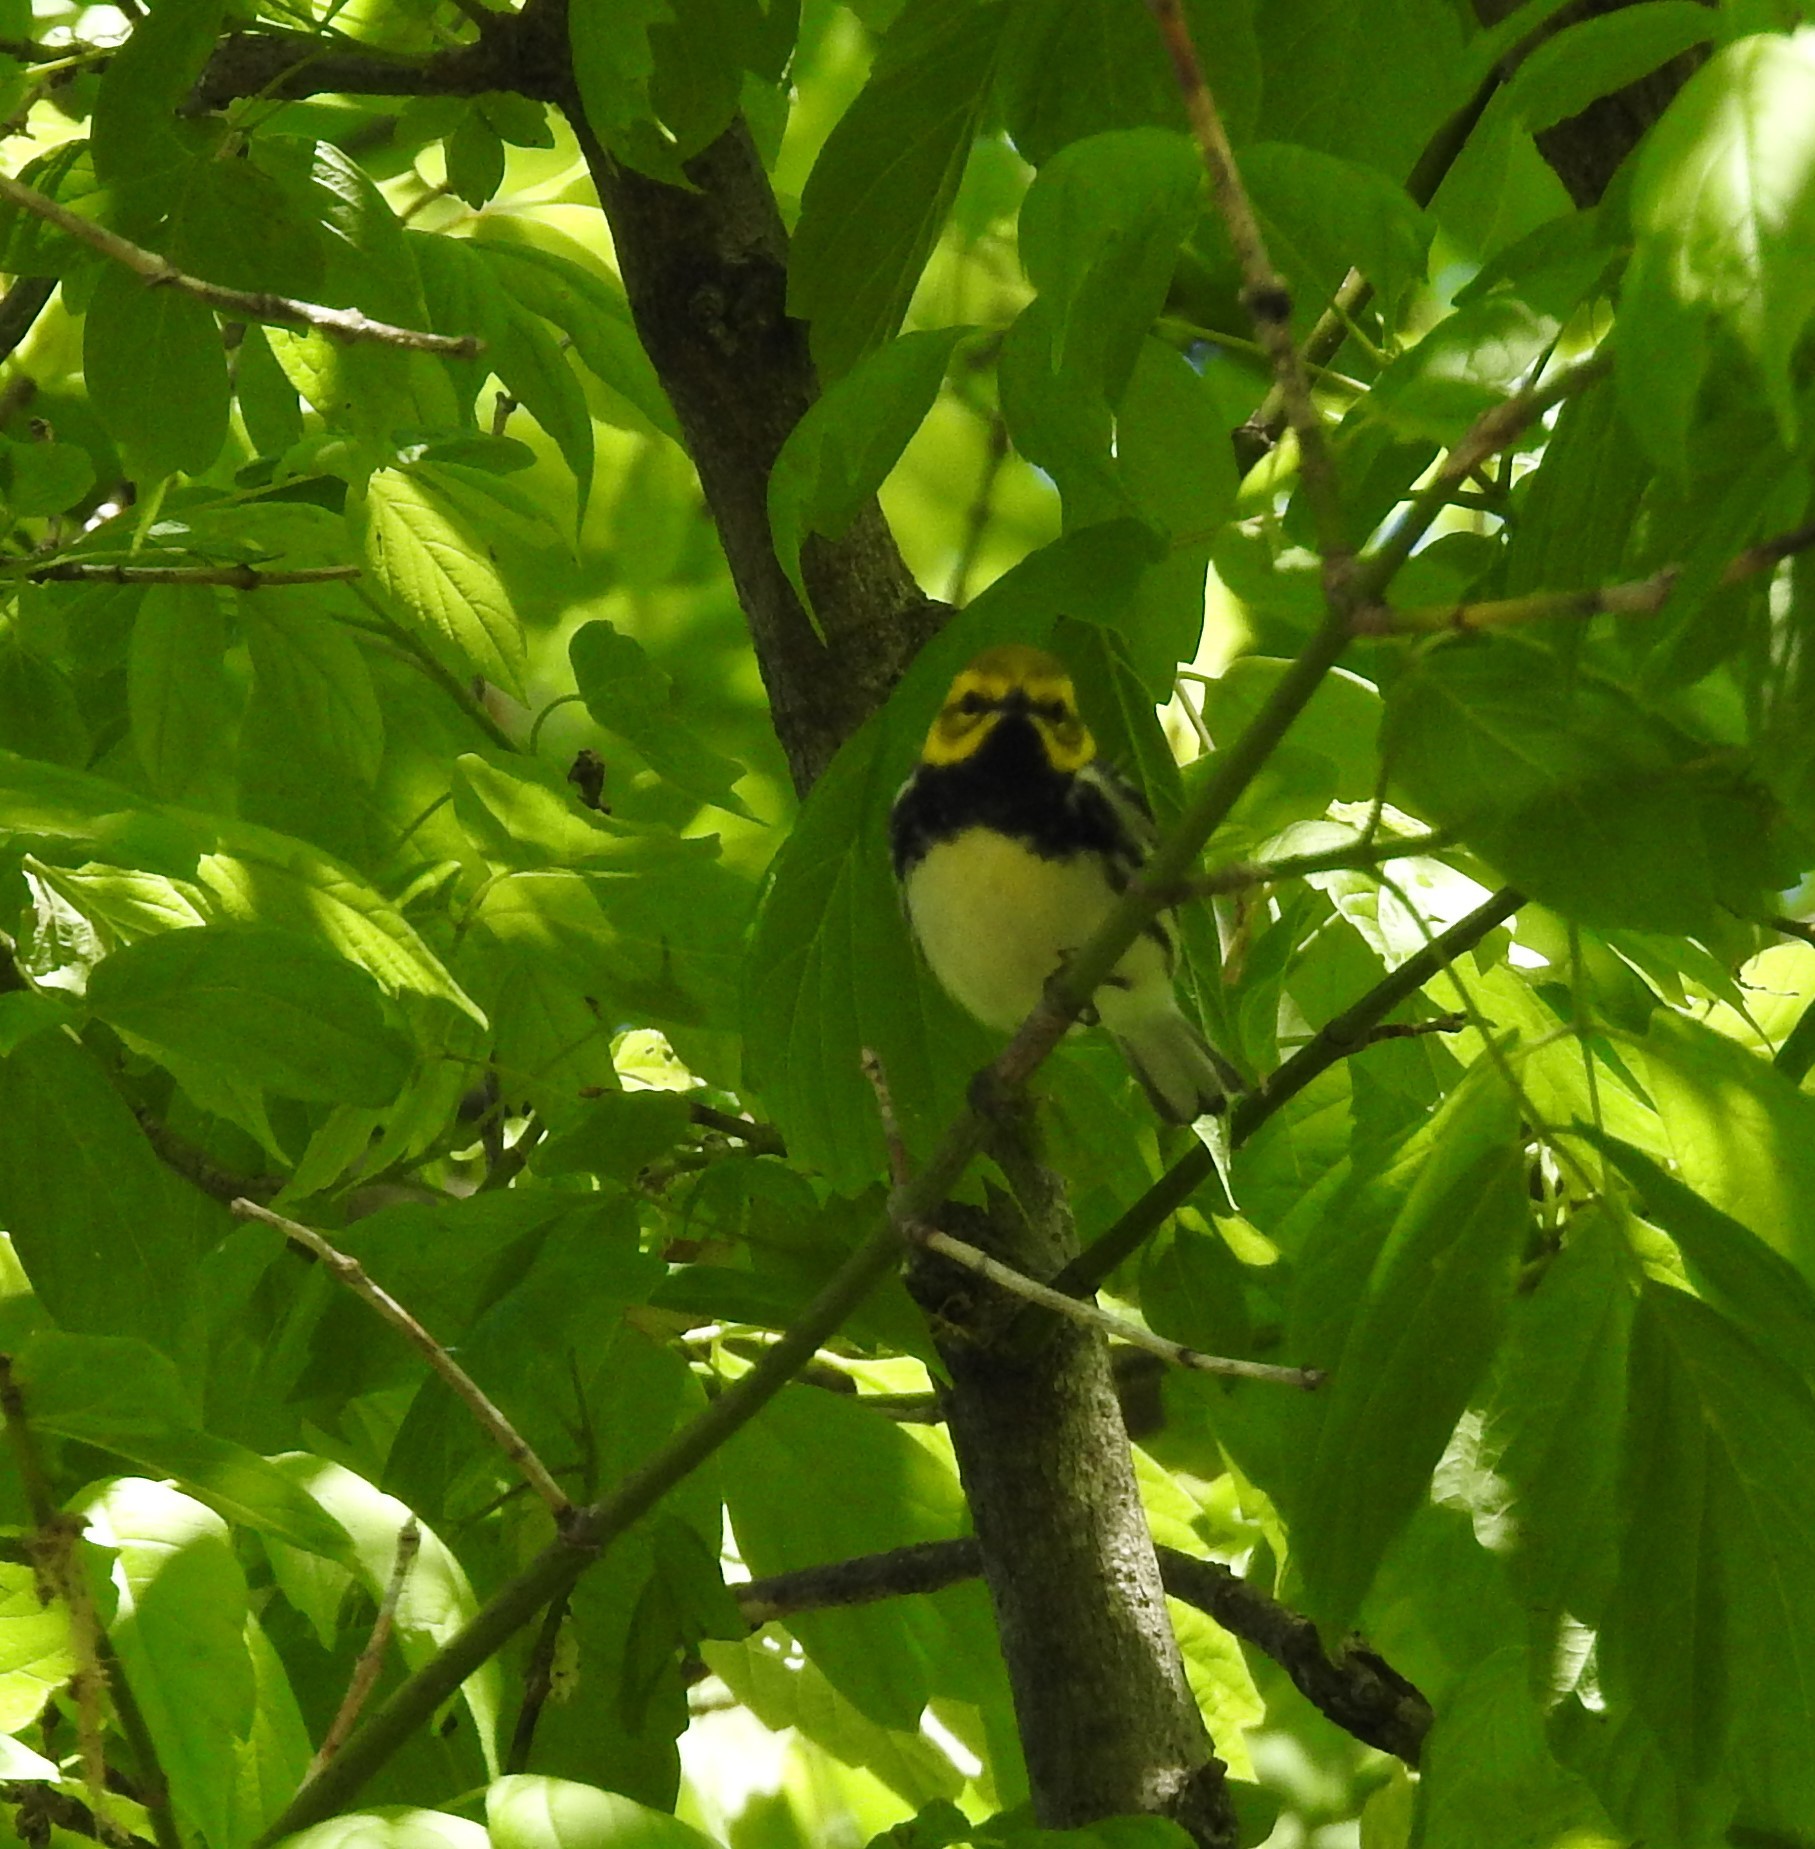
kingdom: Animalia
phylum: Chordata
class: Aves
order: Passeriformes
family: Parulidae
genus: Setophaga
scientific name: Setophaga virens
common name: Black-throated green warbler
